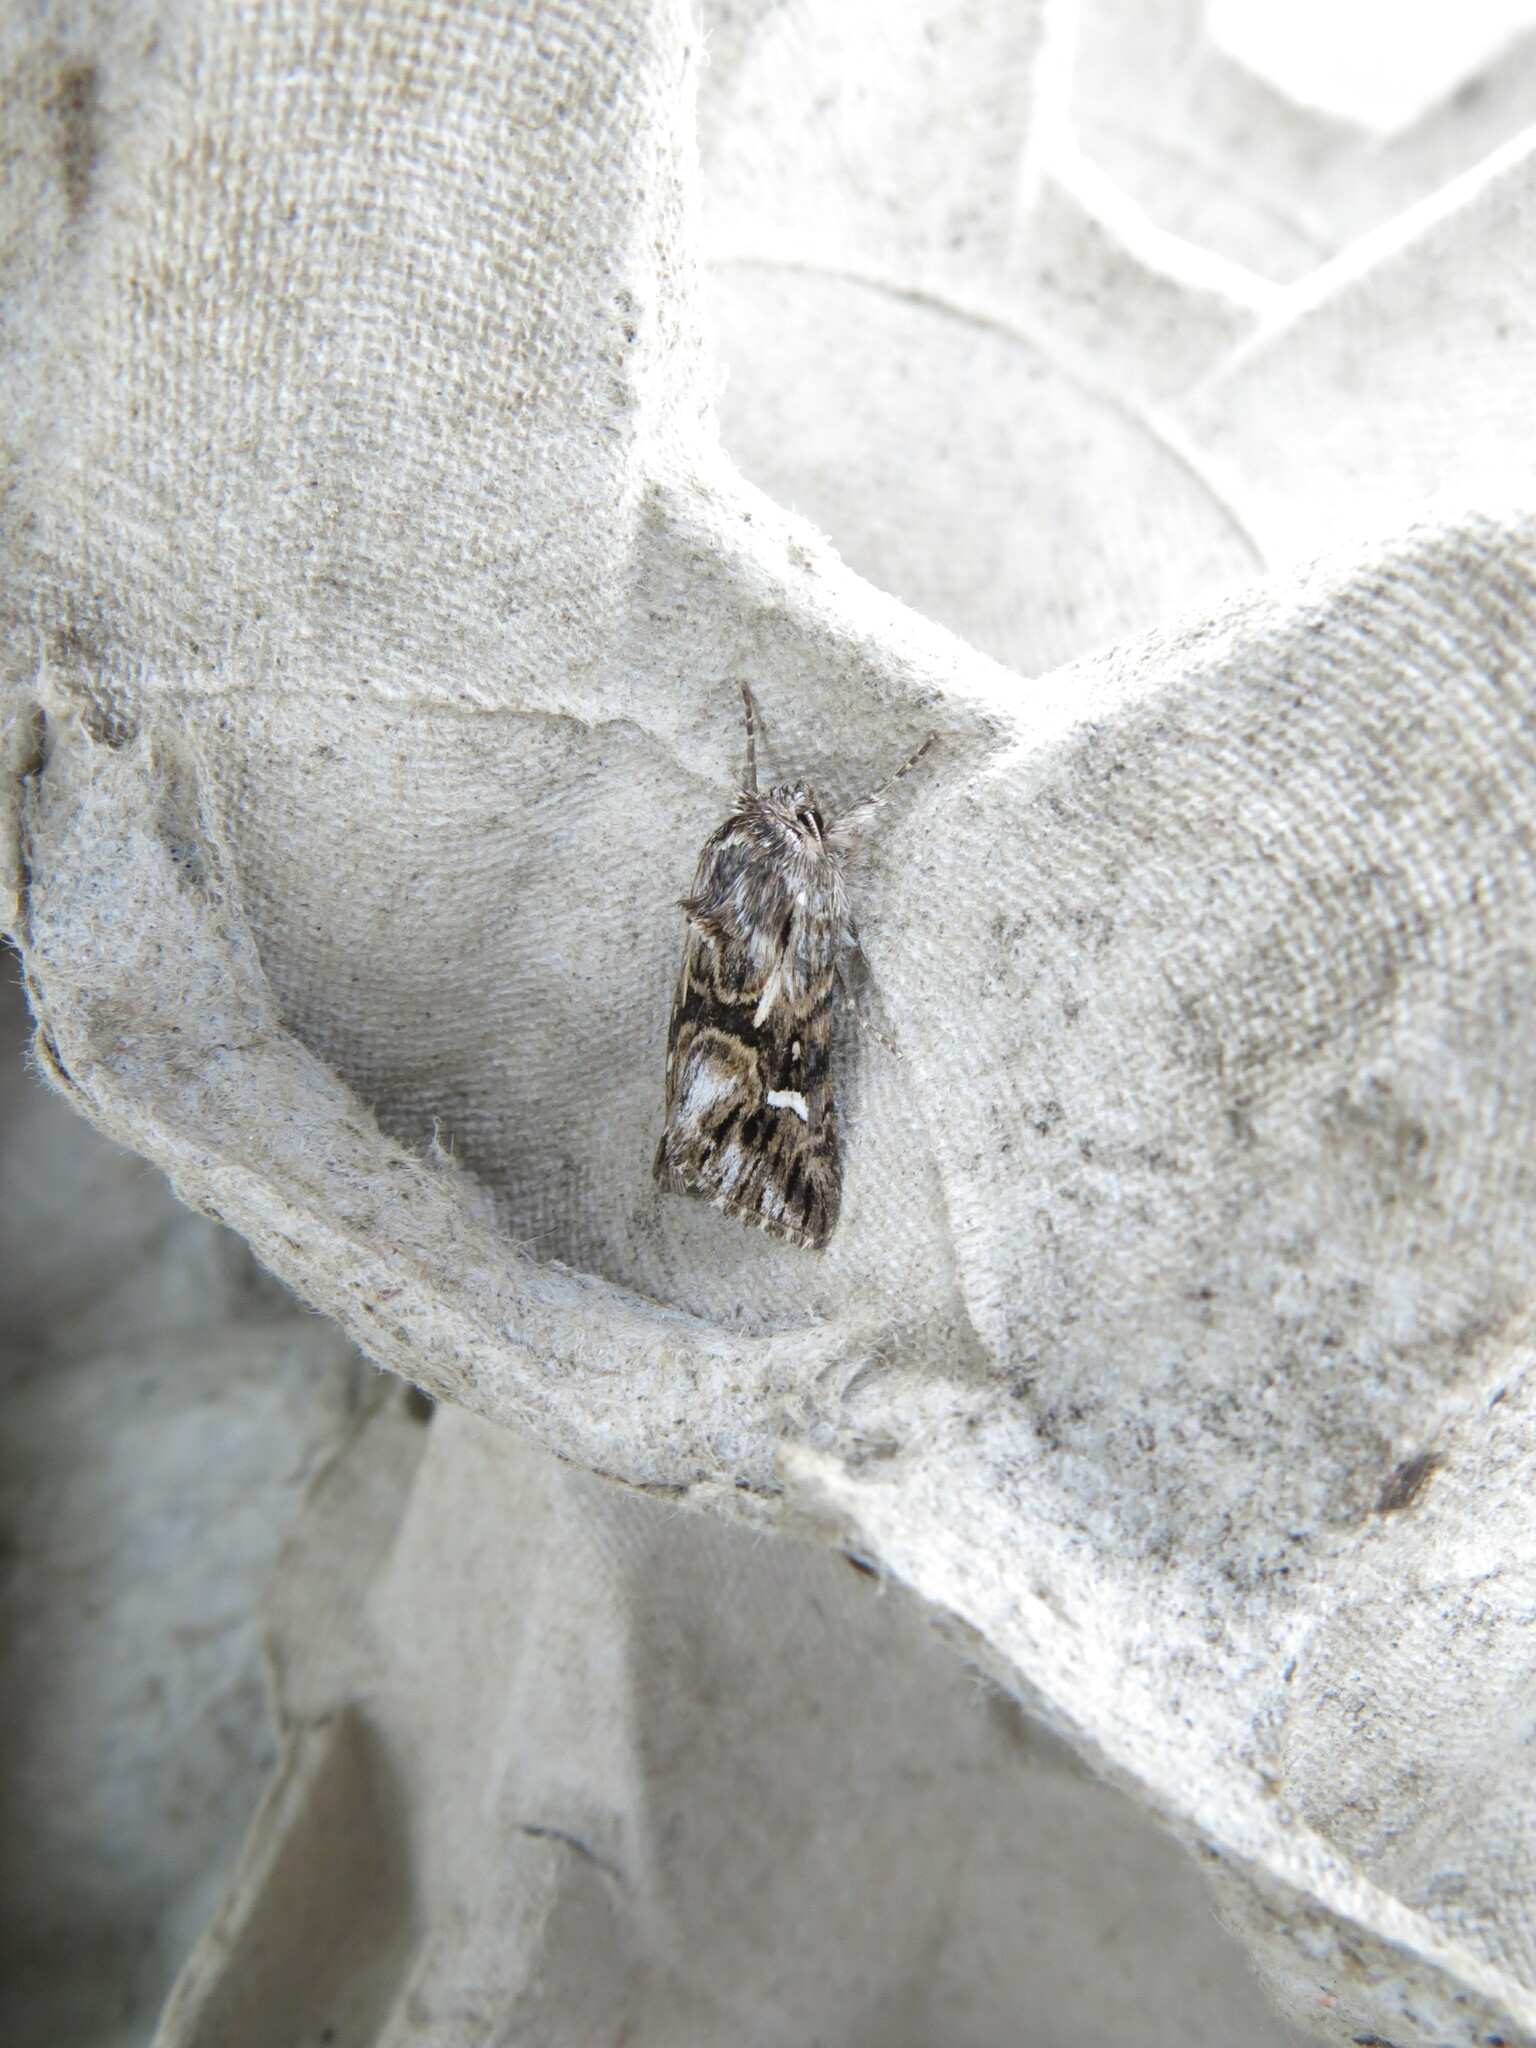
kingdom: Animalia
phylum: Arthropoda
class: Insecta
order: Lepidoptera
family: Noctuidae
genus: Calophasia
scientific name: Calophasia lunula
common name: Toadflax brocade
